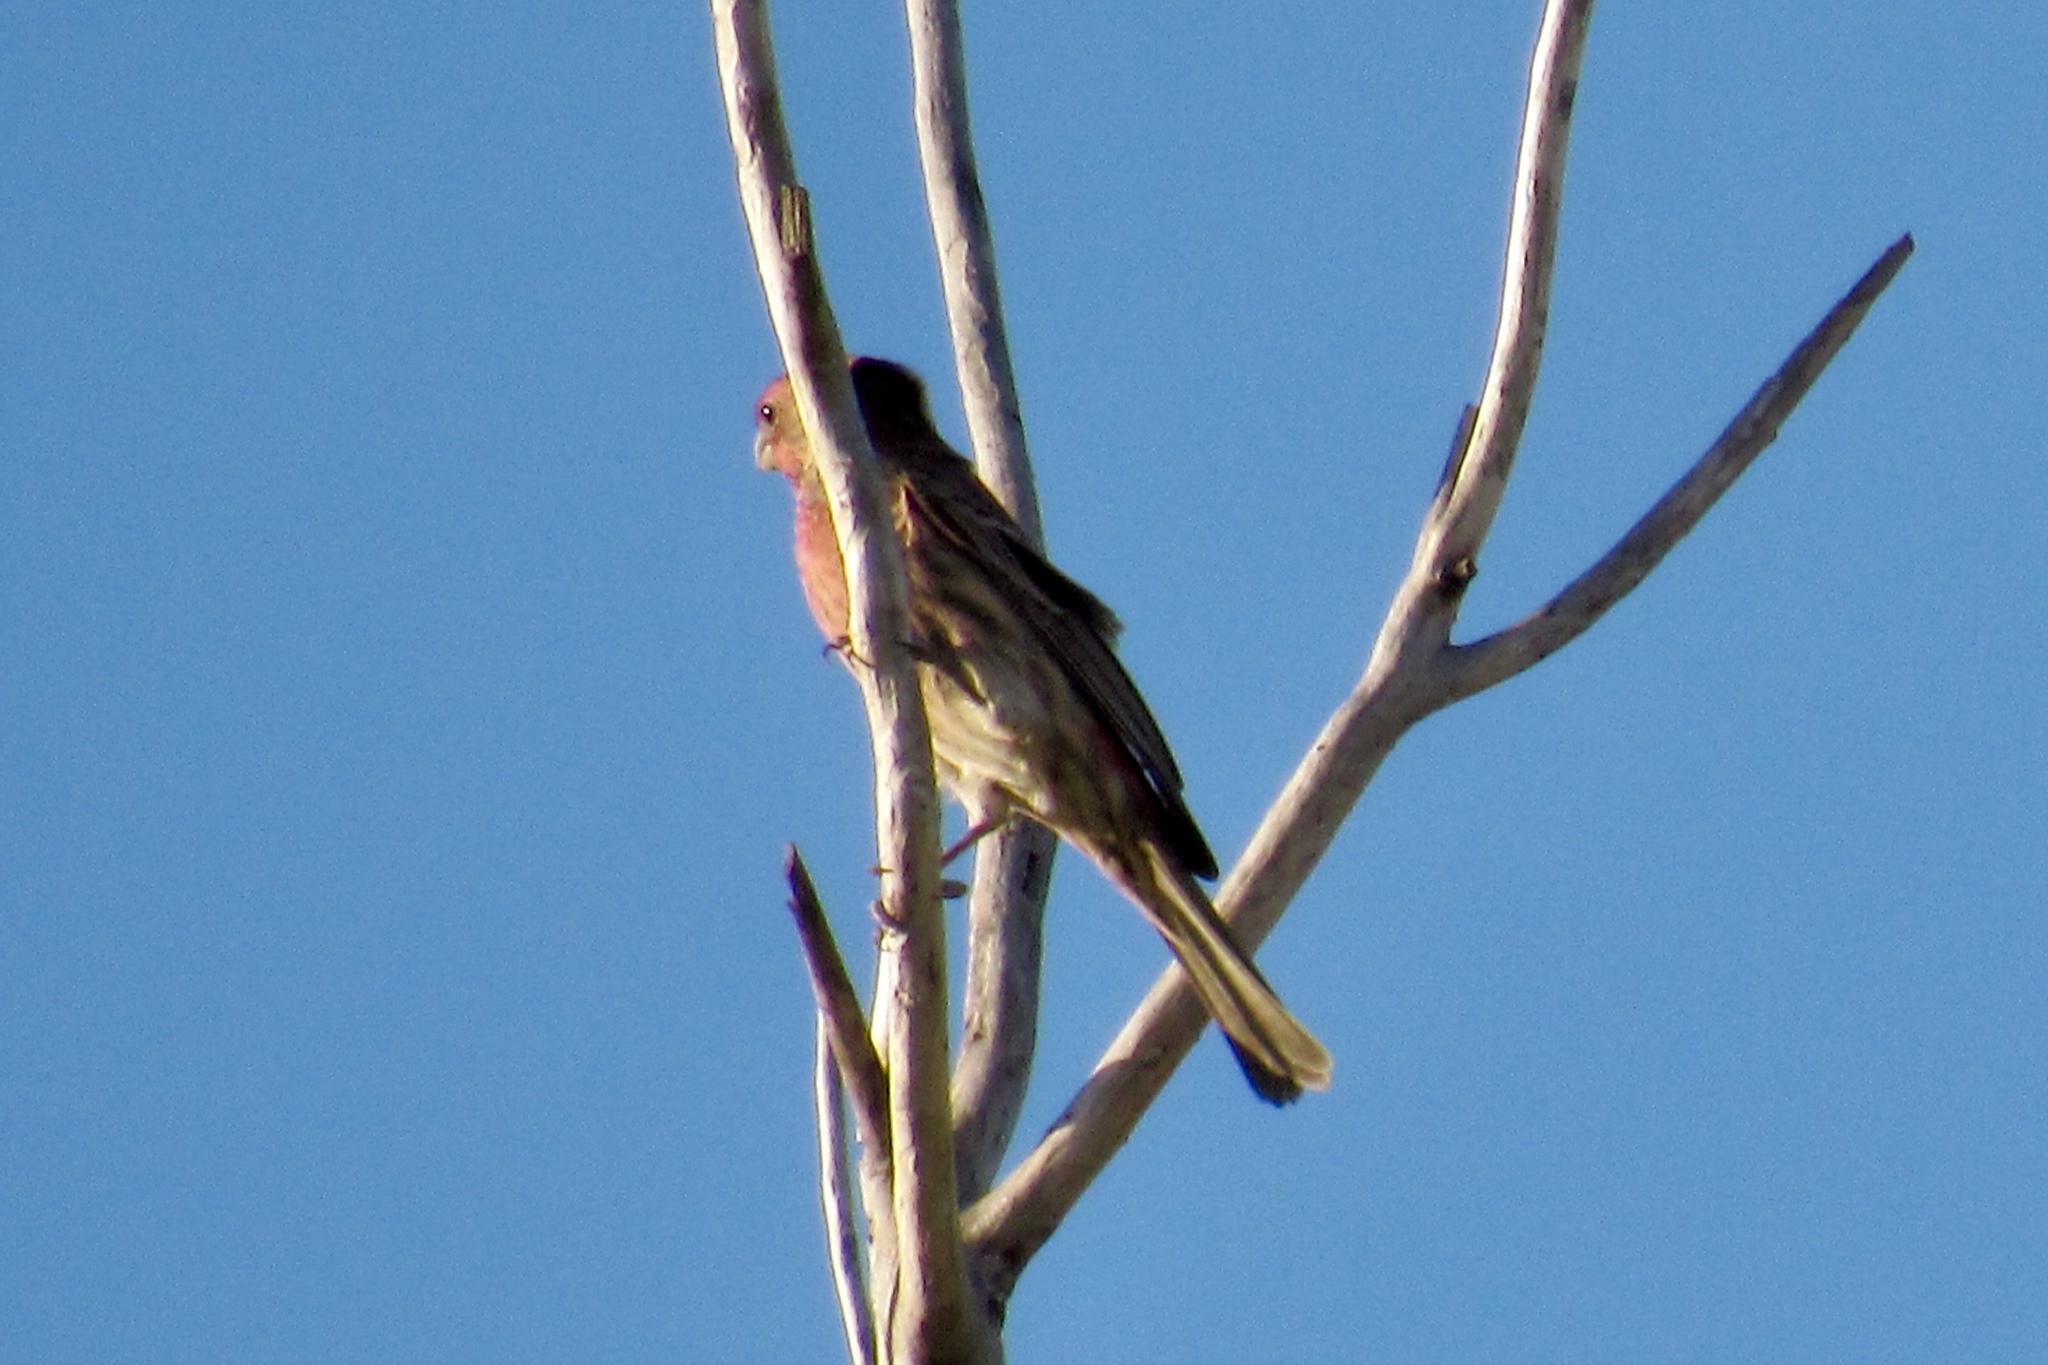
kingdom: Animalia
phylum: Chordata
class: Aves
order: Passeriformes
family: Fringillidae
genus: Haemorhous
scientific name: Haemorhous mexicanus
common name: House finch
